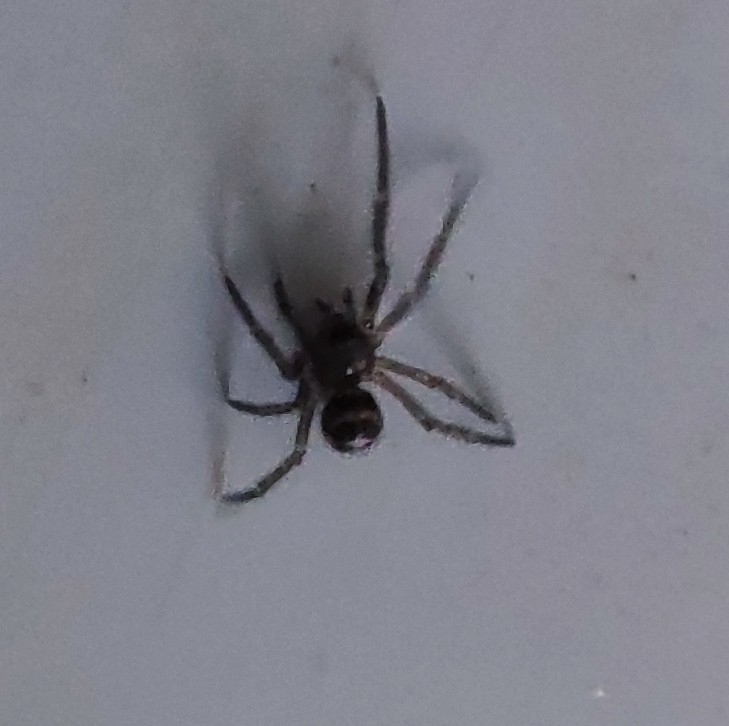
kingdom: Animalia
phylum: Arthropoda
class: Arachnida
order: Araneae
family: Theridiidae
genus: Steatoda
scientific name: Steatoda grossa
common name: False black widow
